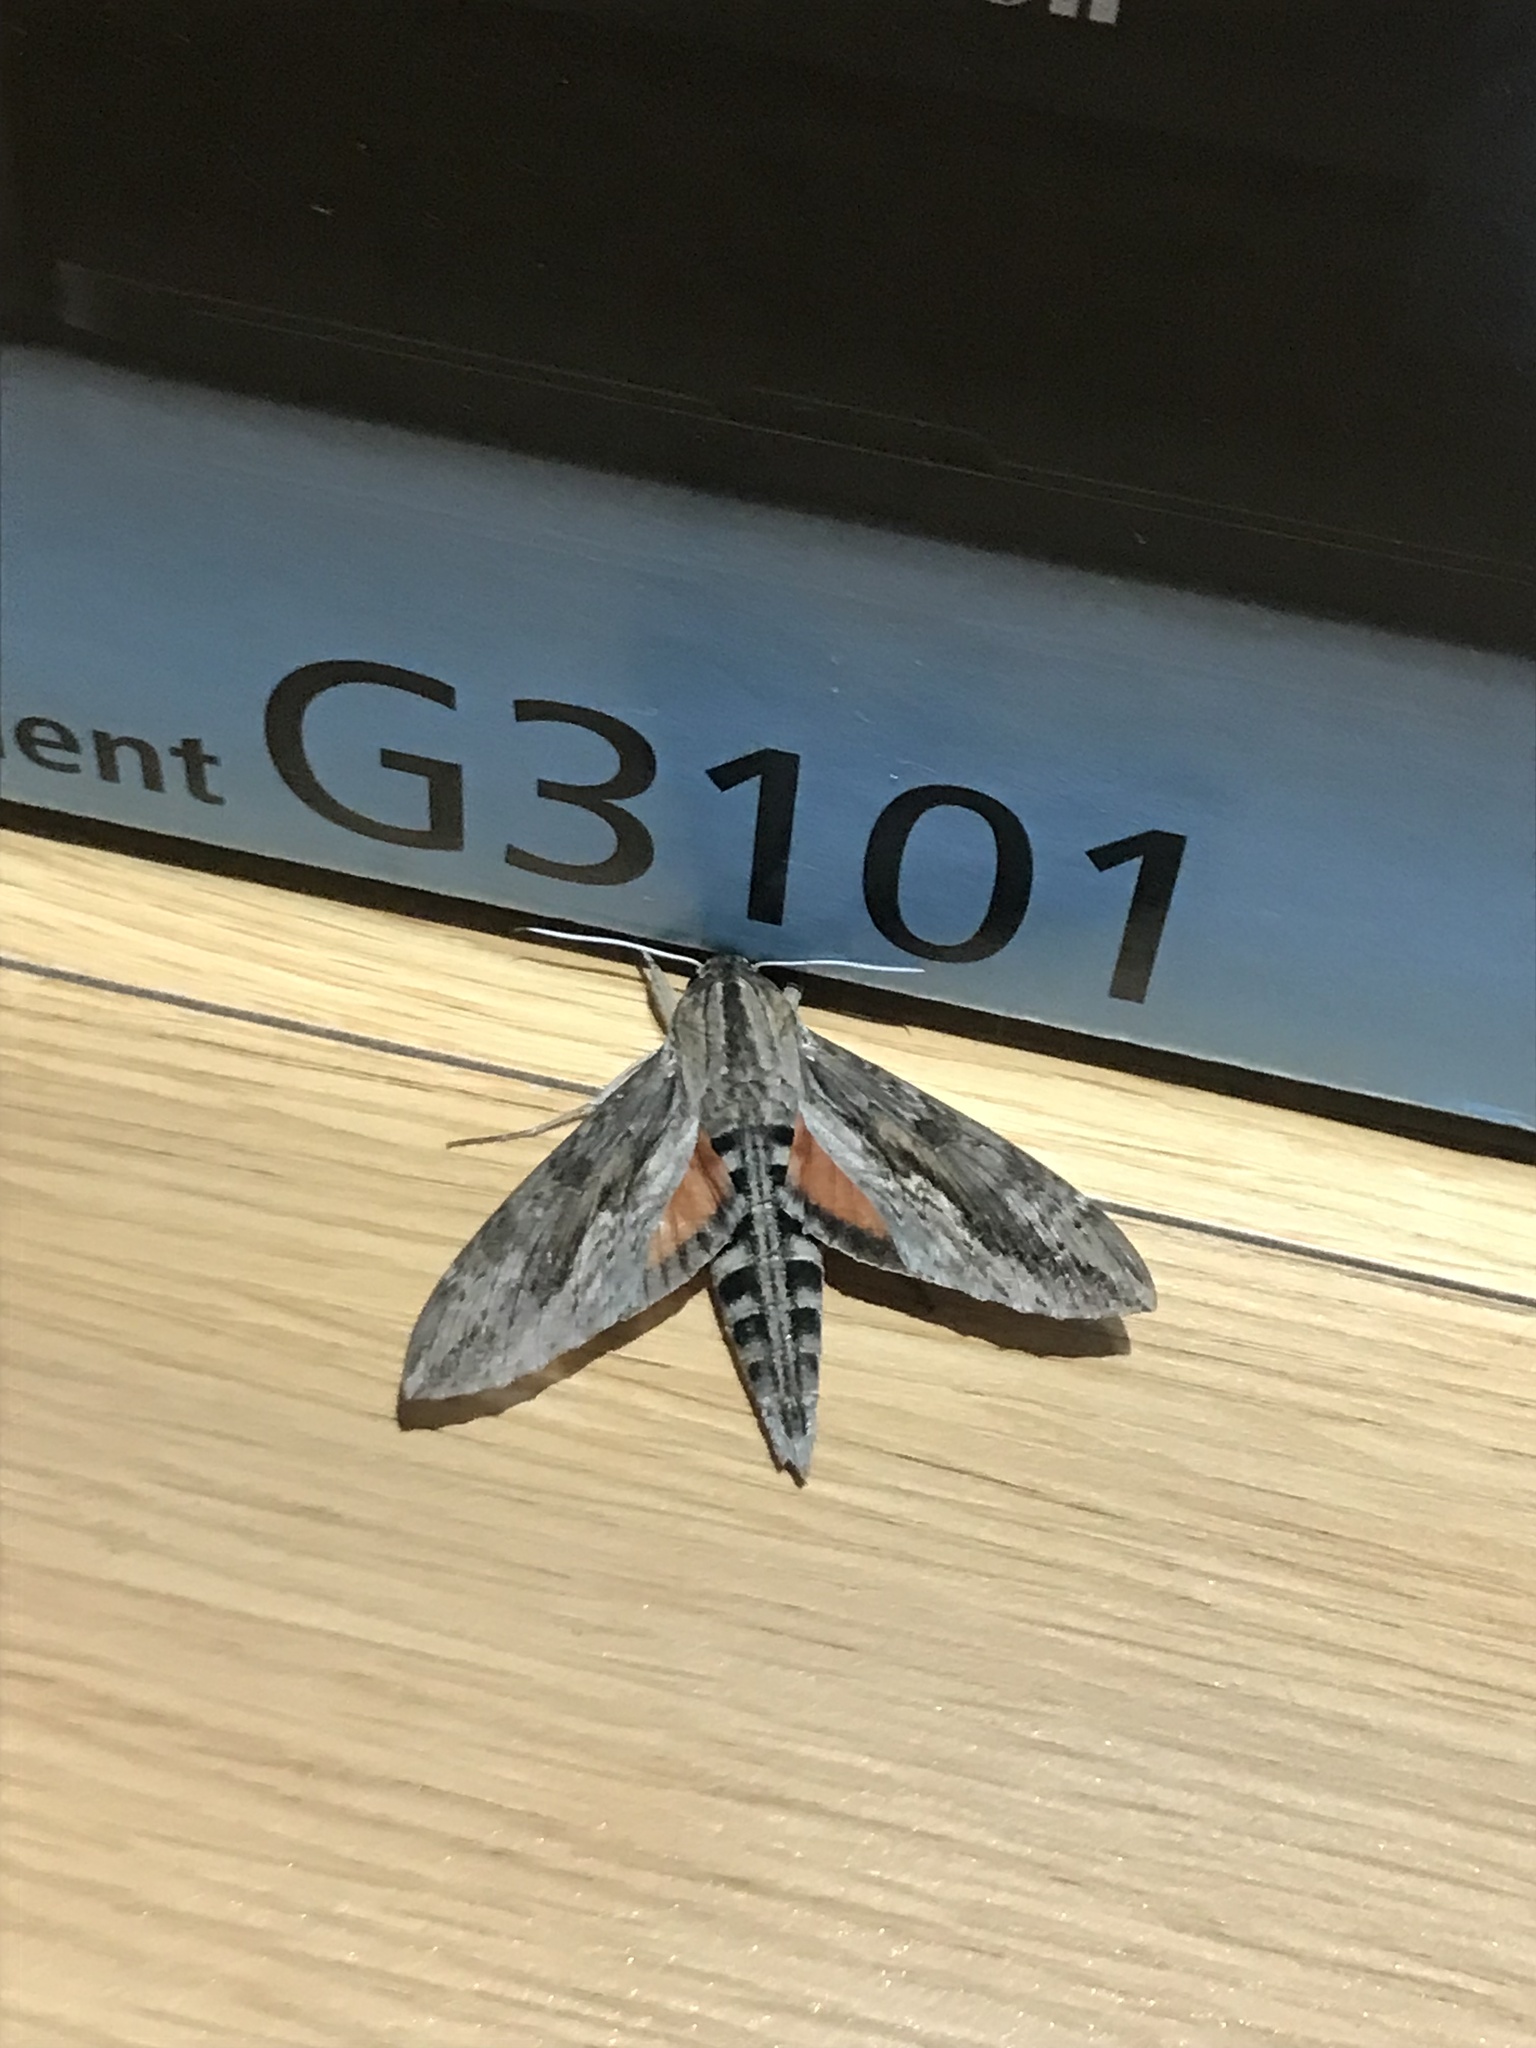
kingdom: Animalia
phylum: Arthropoda
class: Insecta
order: Lepidoptera
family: Sphingidae
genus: Erinnyis
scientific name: Erinnyis ello
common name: Ello sphinx
